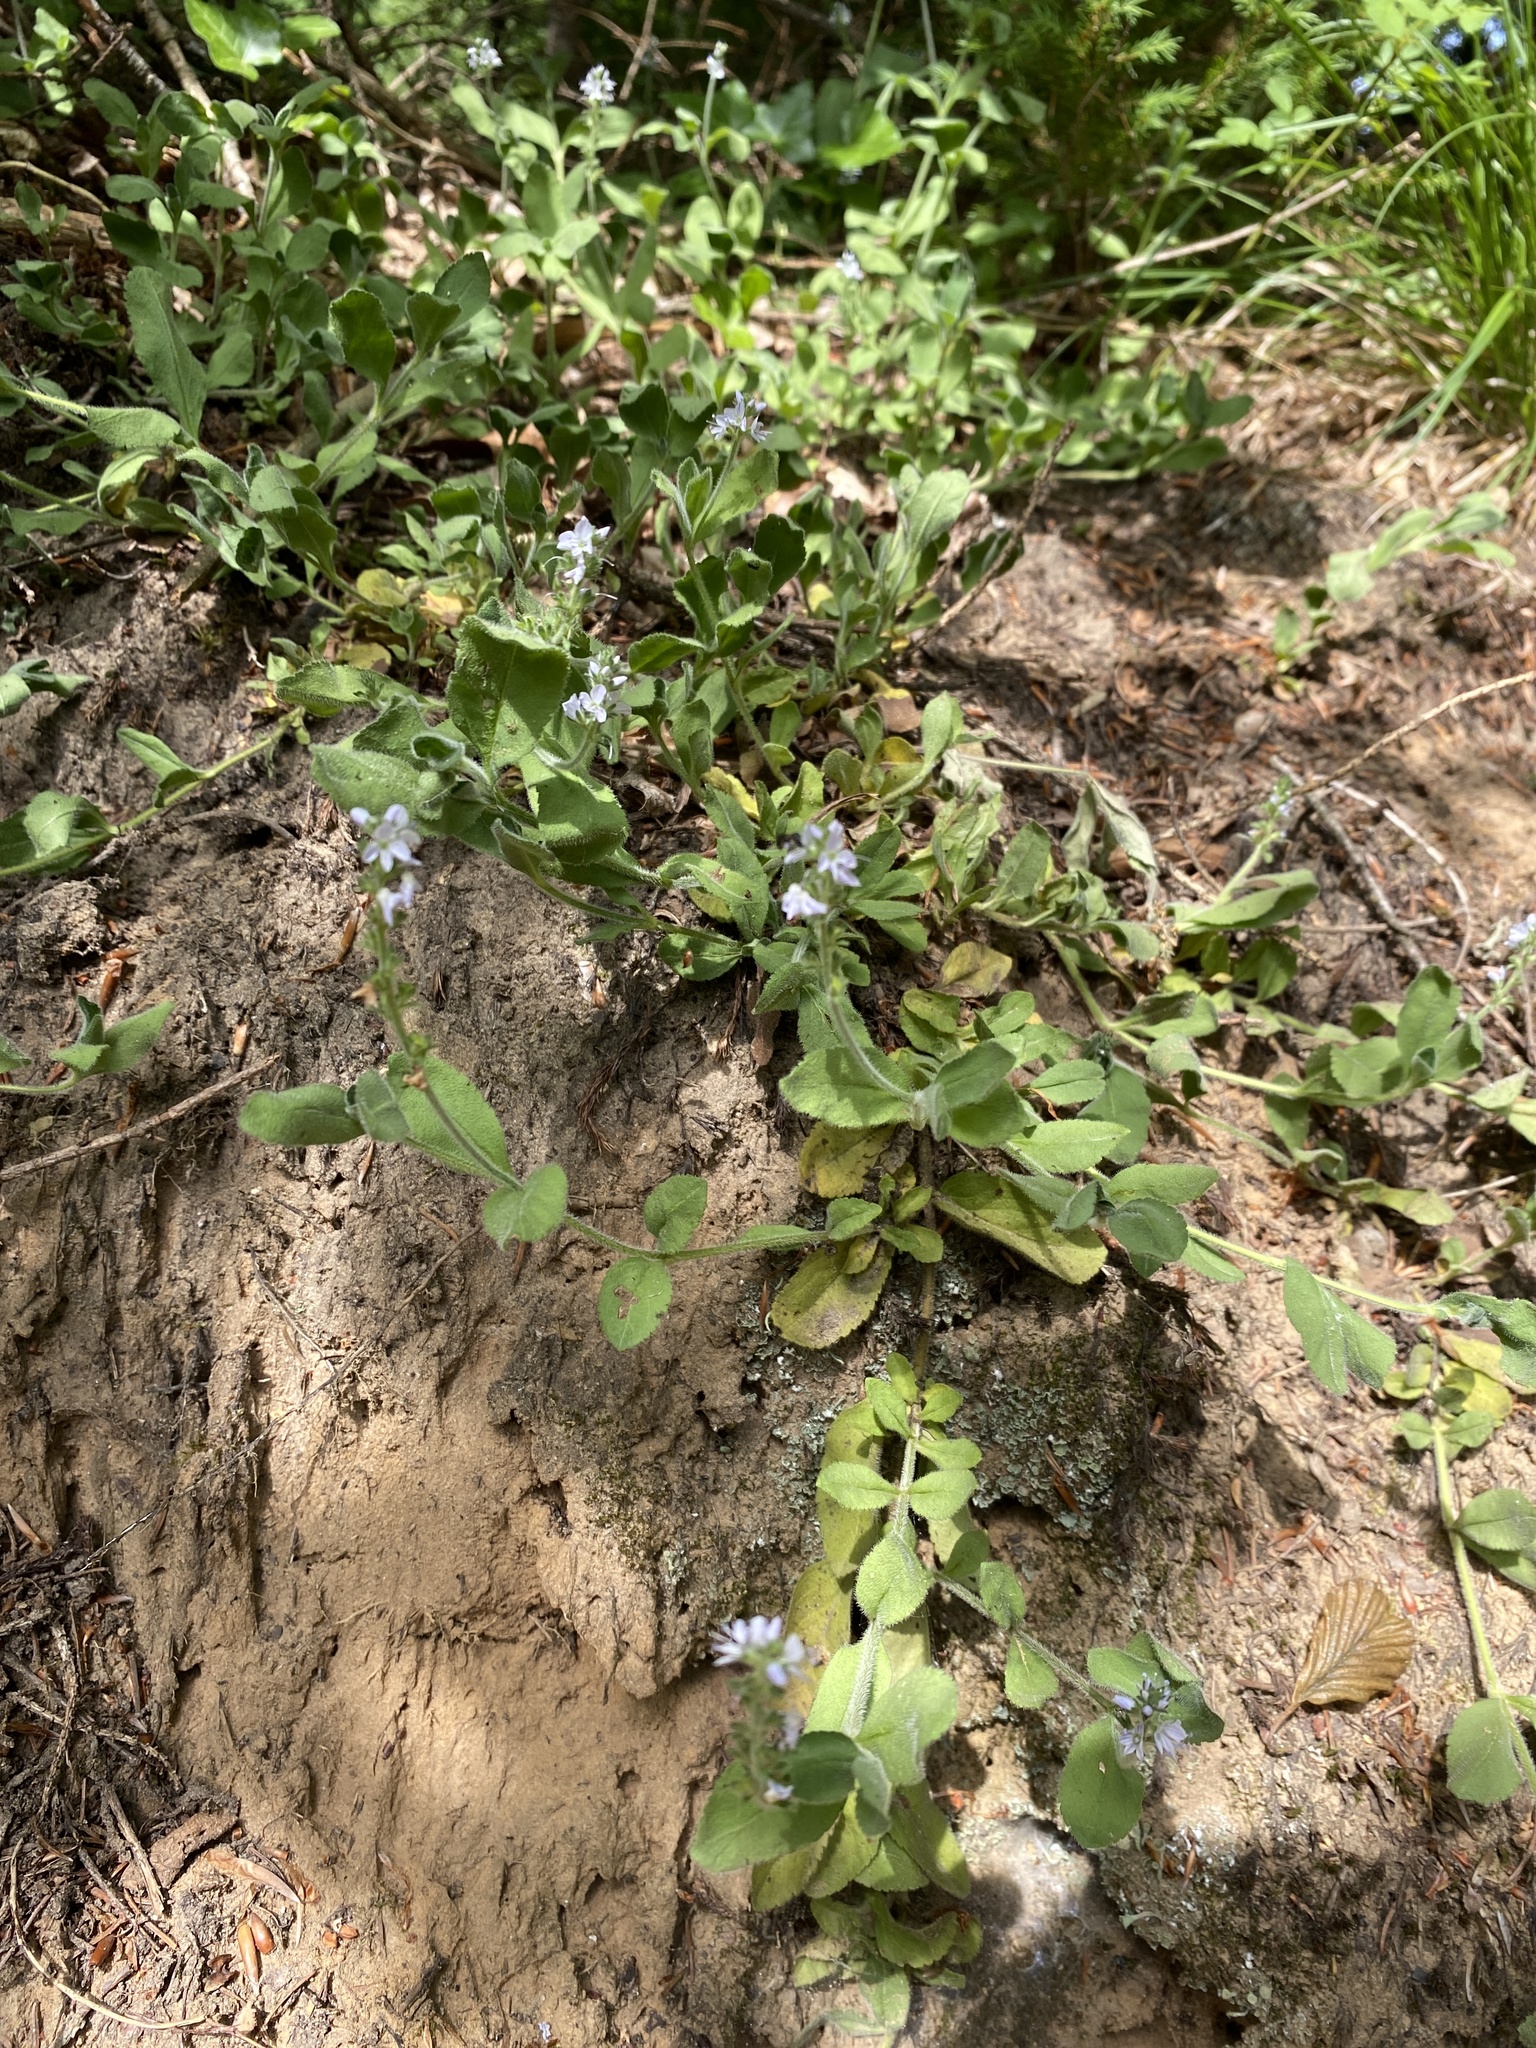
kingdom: Plantae
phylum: Tracheophyta
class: Magnoliopsida
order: Lamiales
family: Plantaginaceae
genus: Veronica
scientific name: Veronica officinalis
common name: Common speedwell
